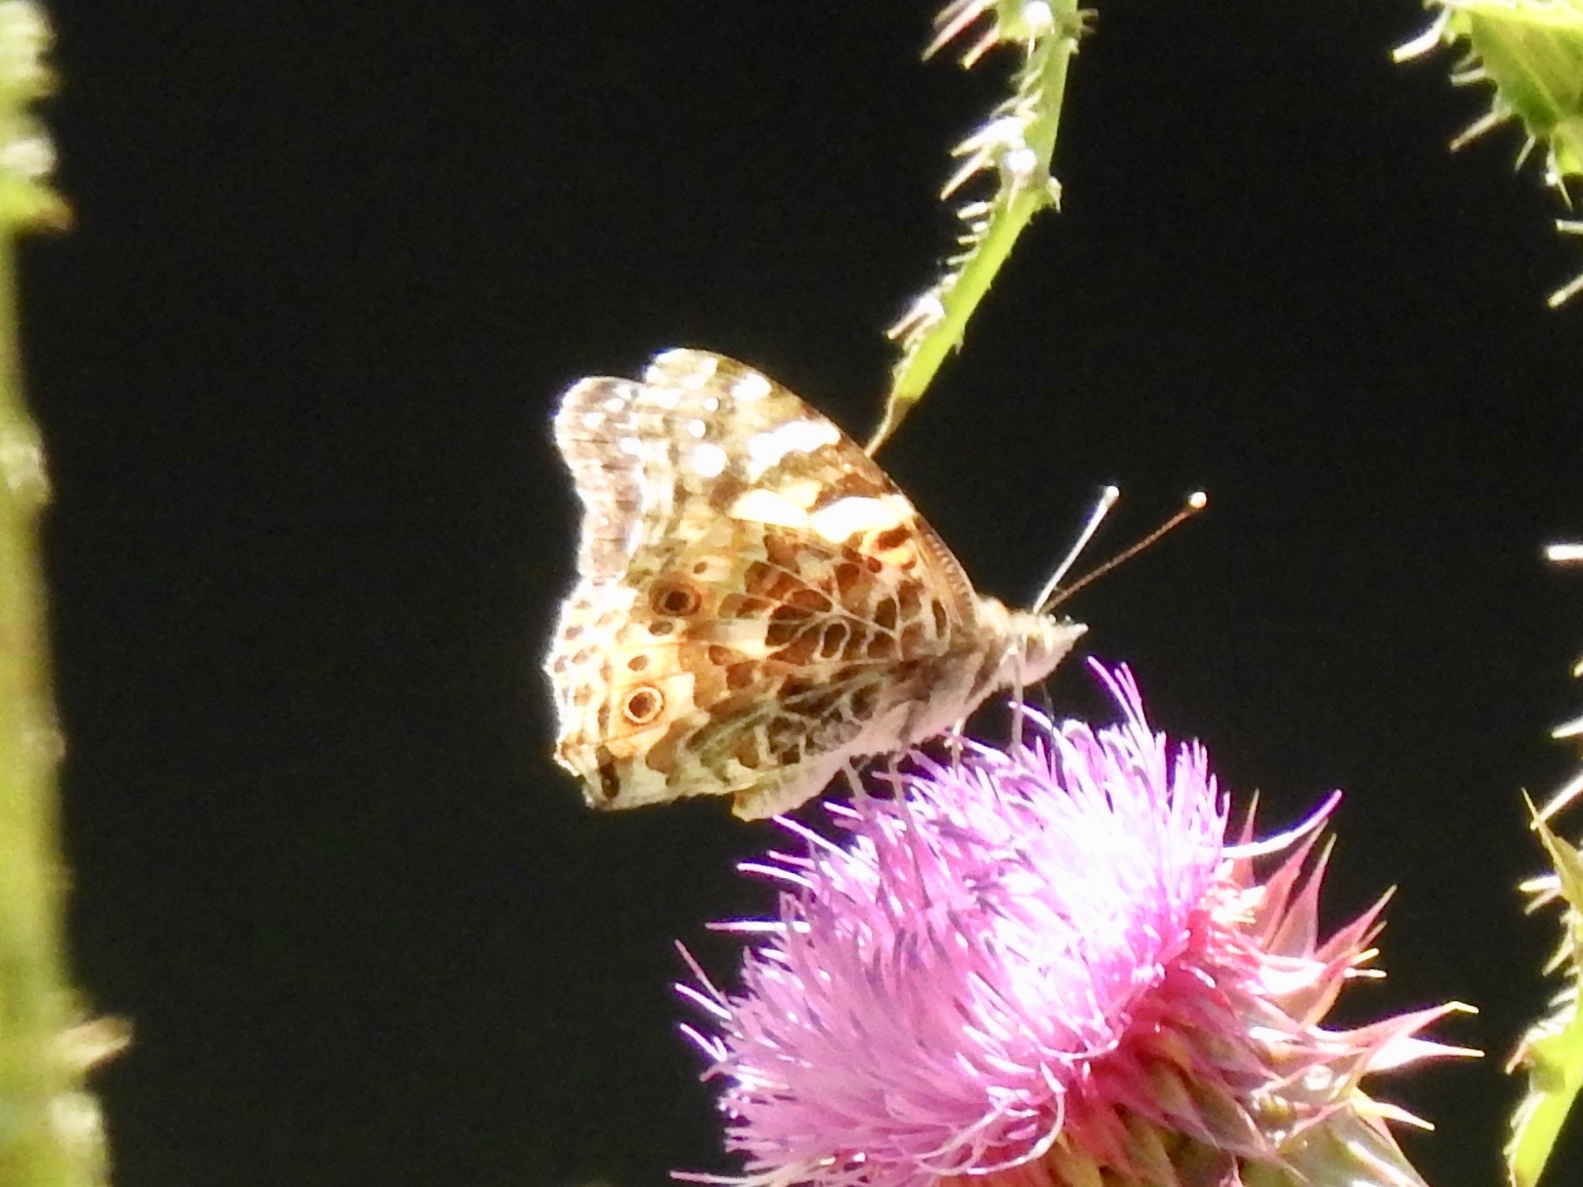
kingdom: Animalia
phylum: Arthropoda
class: Insecta
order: Lepidoptera
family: Nymphalidae
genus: Vanessa
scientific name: Vanessa cardui
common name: Painted lady
